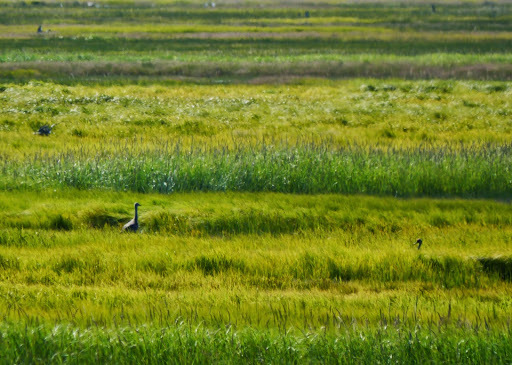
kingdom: Animalia
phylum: Chordata
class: Aves
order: Gruiformes
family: Gruidae
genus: Grus
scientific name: Grus canadensis
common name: Sandhill crane
